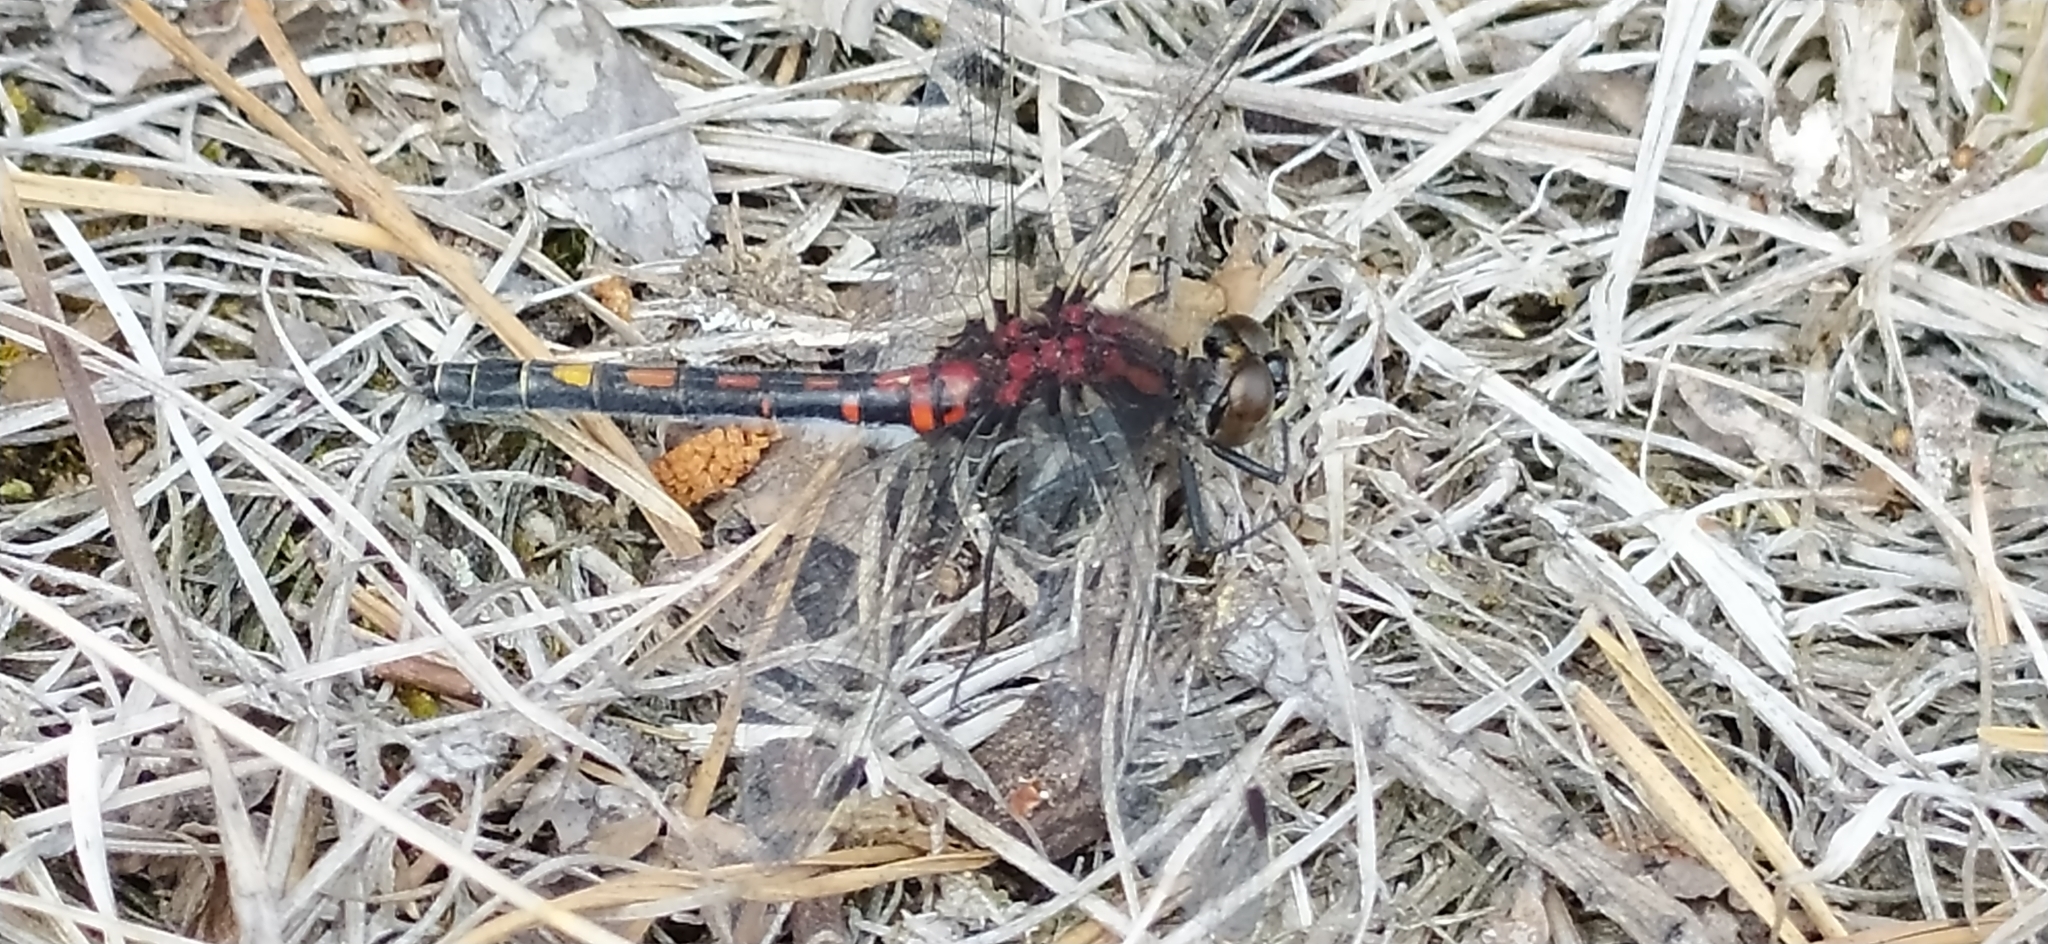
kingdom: Animalia
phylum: Arthropoda
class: Insecta
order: Odonata
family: Libellulidae
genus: Leucorrhinia
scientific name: Leucorrhinia dubia
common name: White-faced darter
